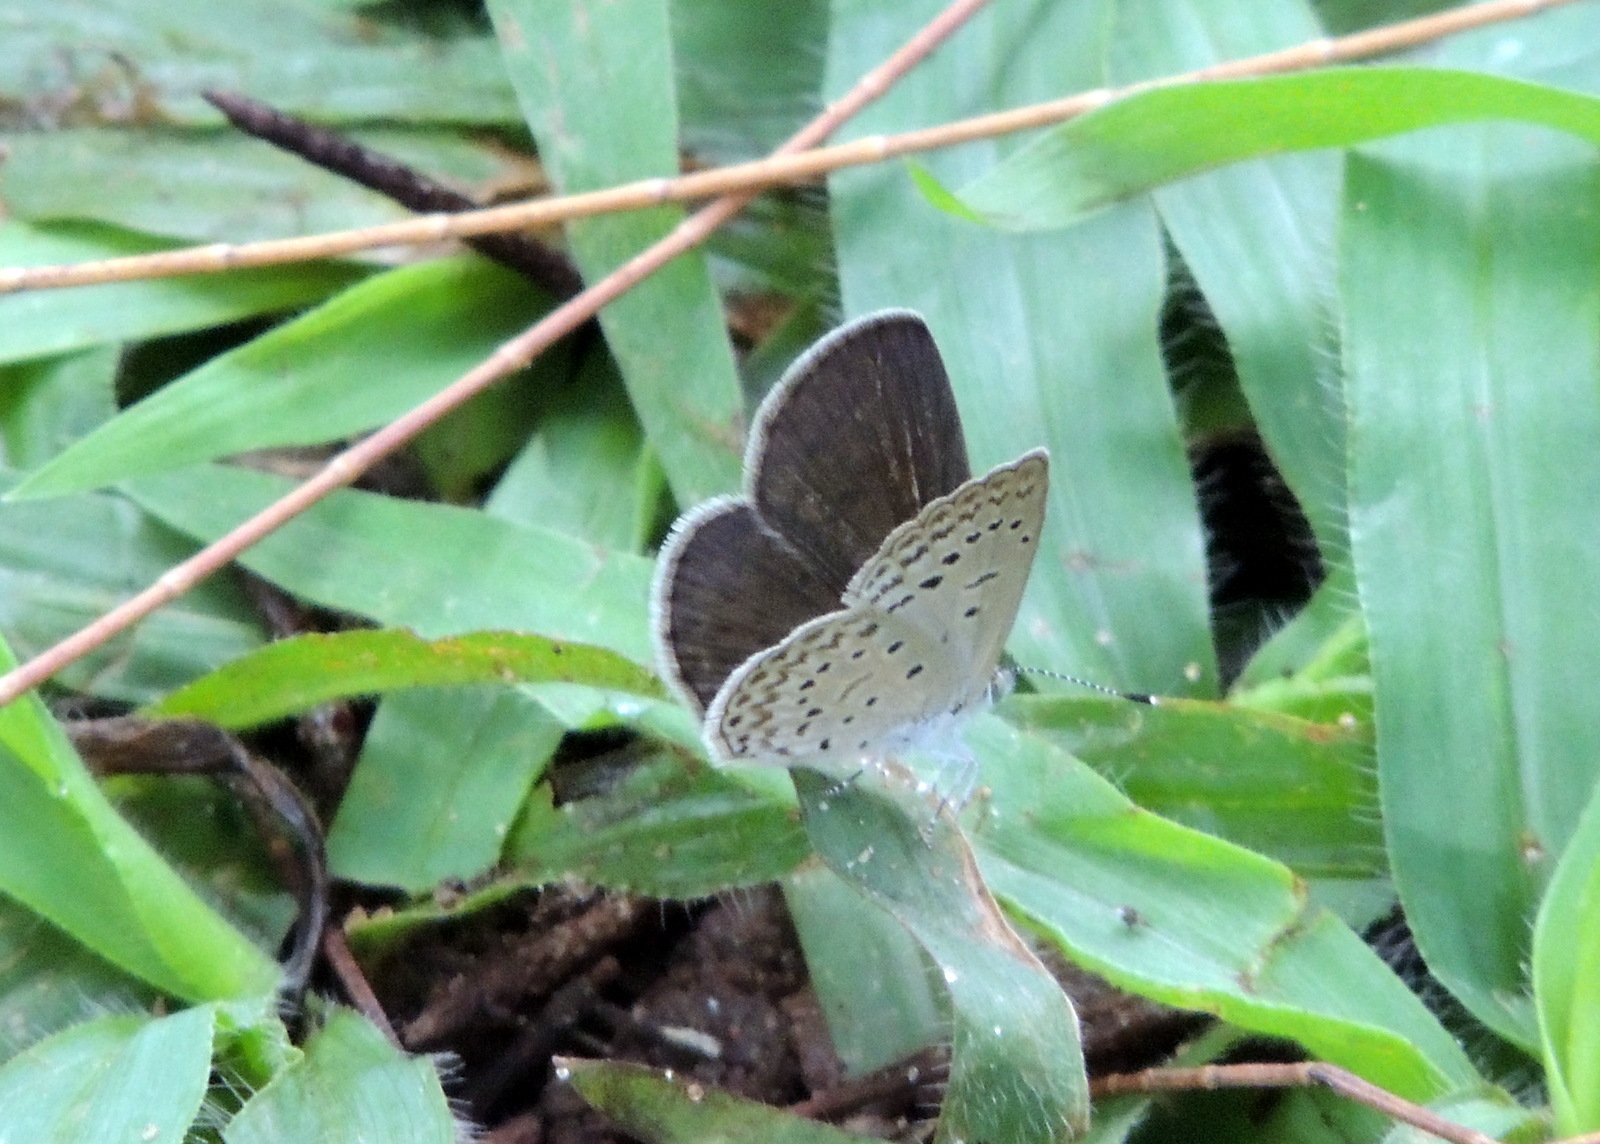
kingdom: Animalia
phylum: Arthropoda
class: Insecta
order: Lepidoptera
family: Lycaenidae
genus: Zizeeria
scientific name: Zizeeria knysna
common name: African grass blue
